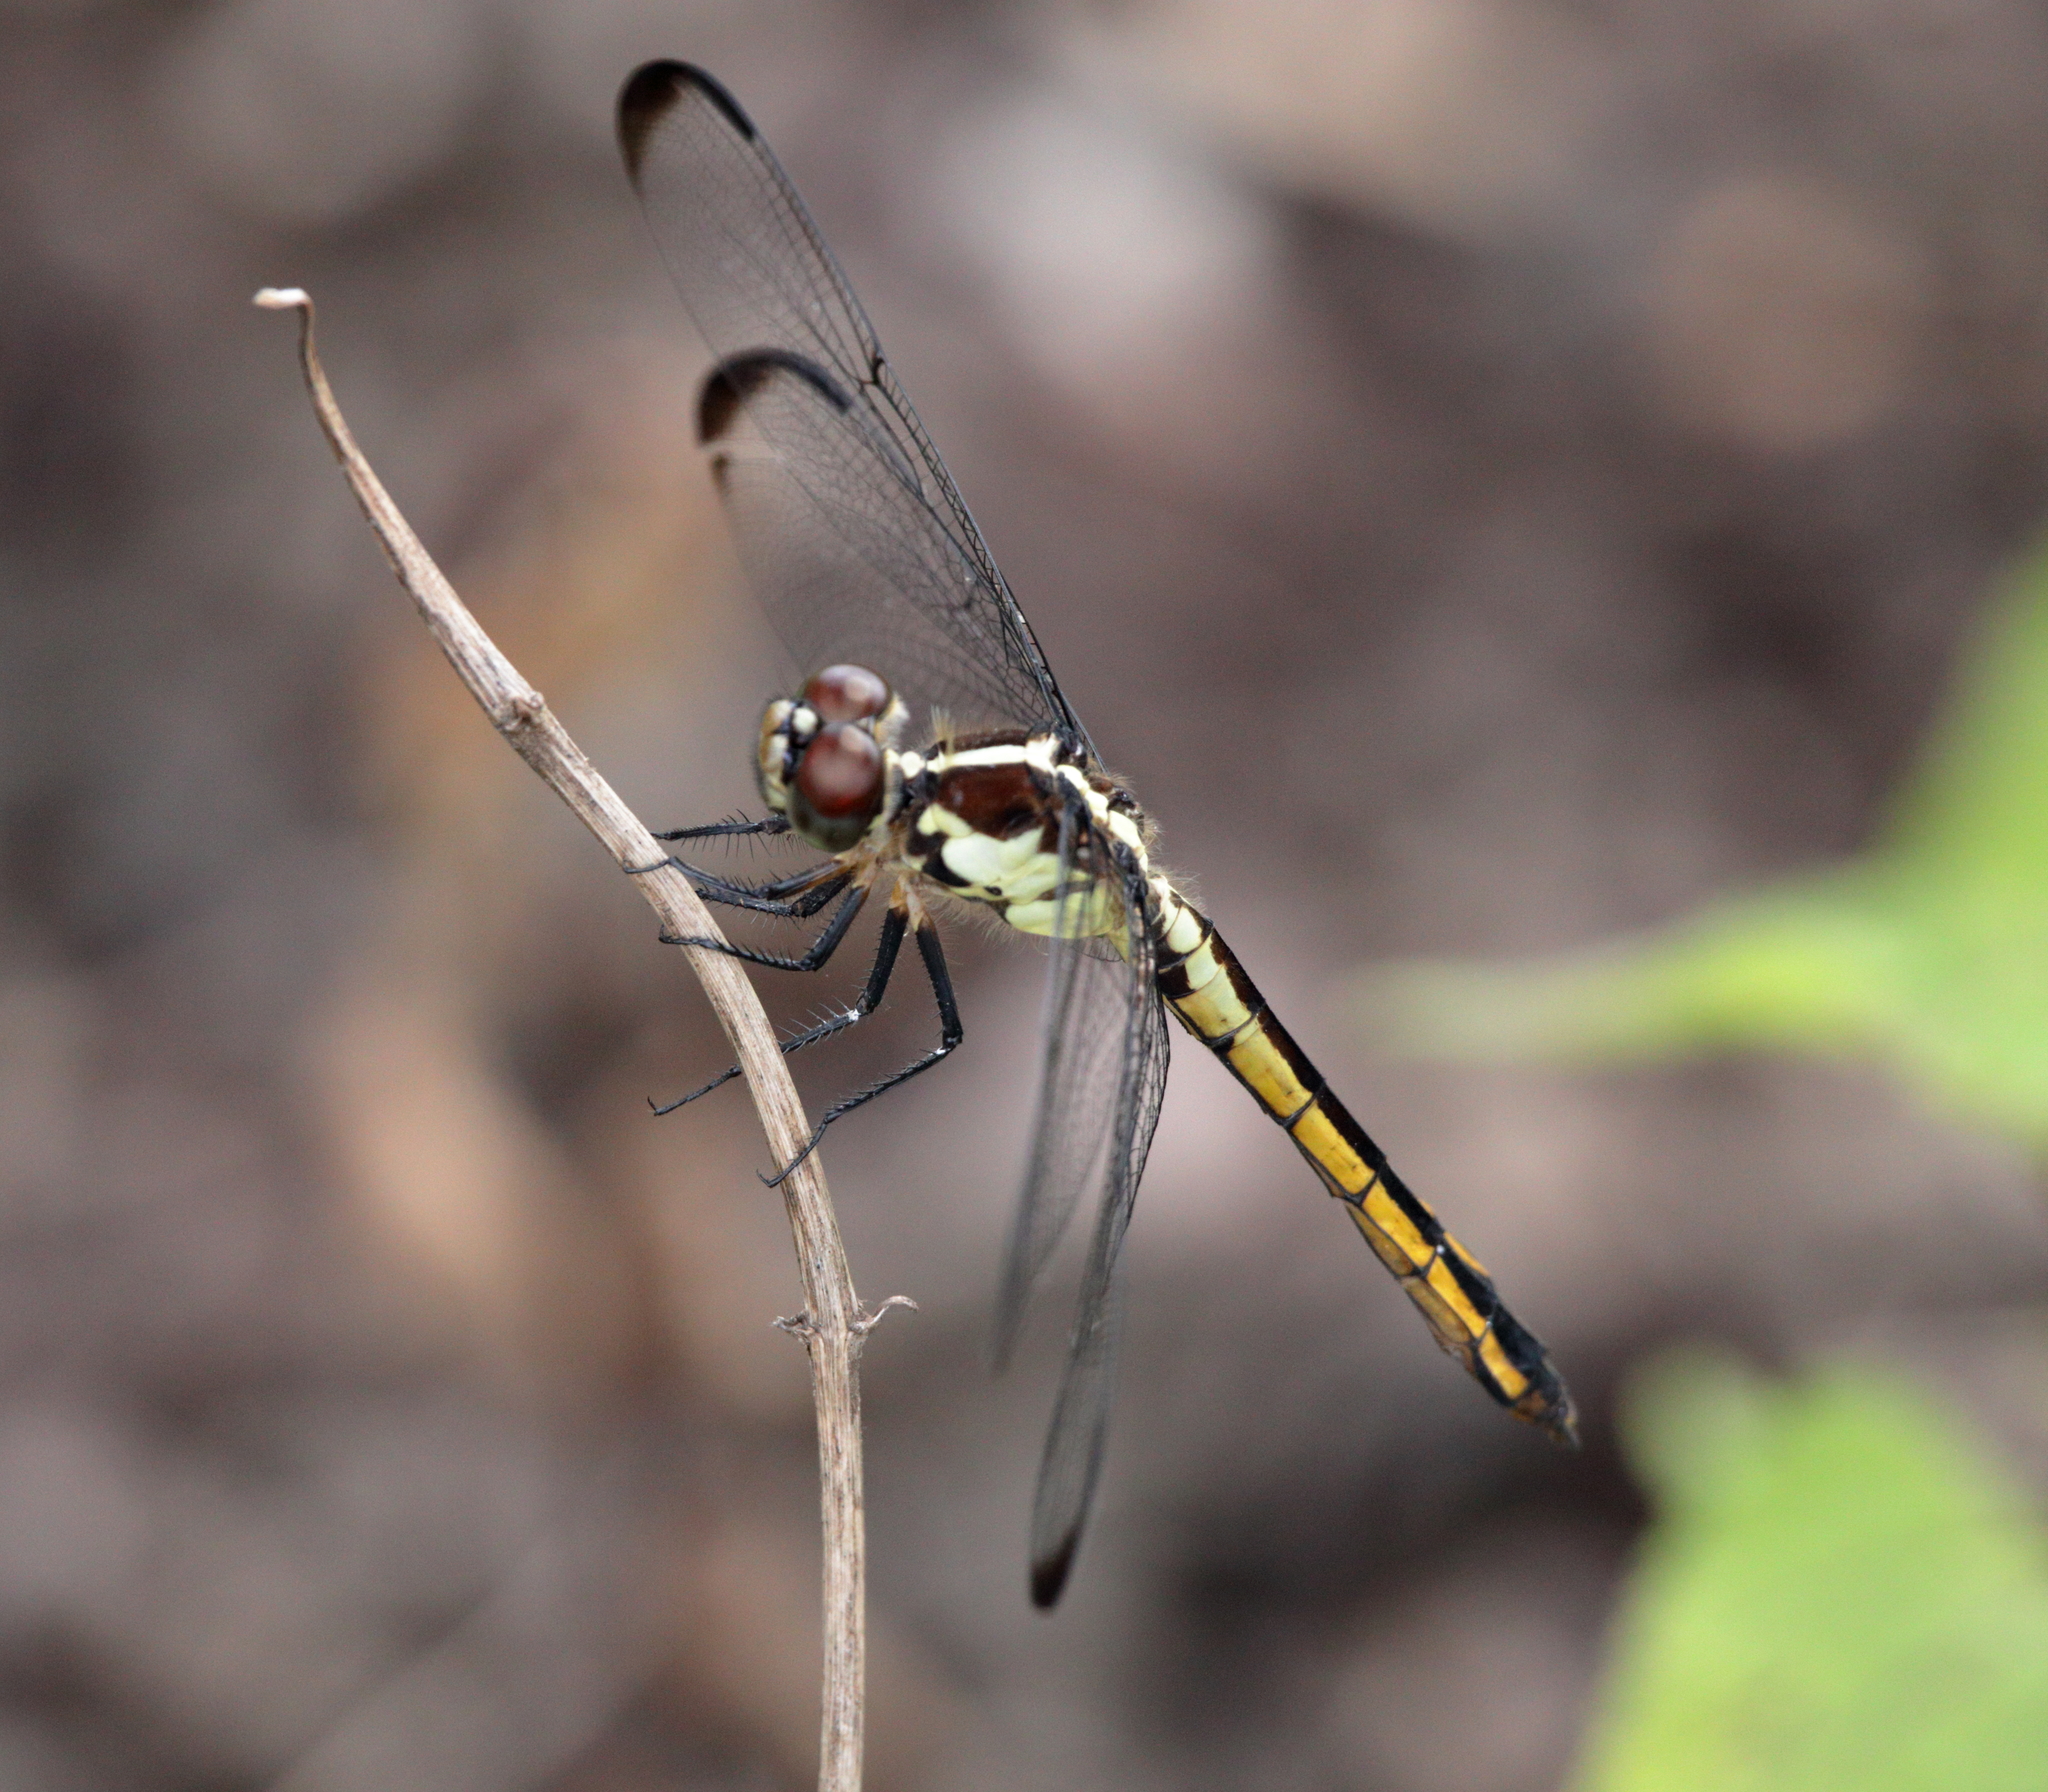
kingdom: Animalia
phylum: Arthropoda
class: Insecta
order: Odonata
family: Libellulidae
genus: Libellula
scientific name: Libellula incesta
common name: Slaty skimmer
